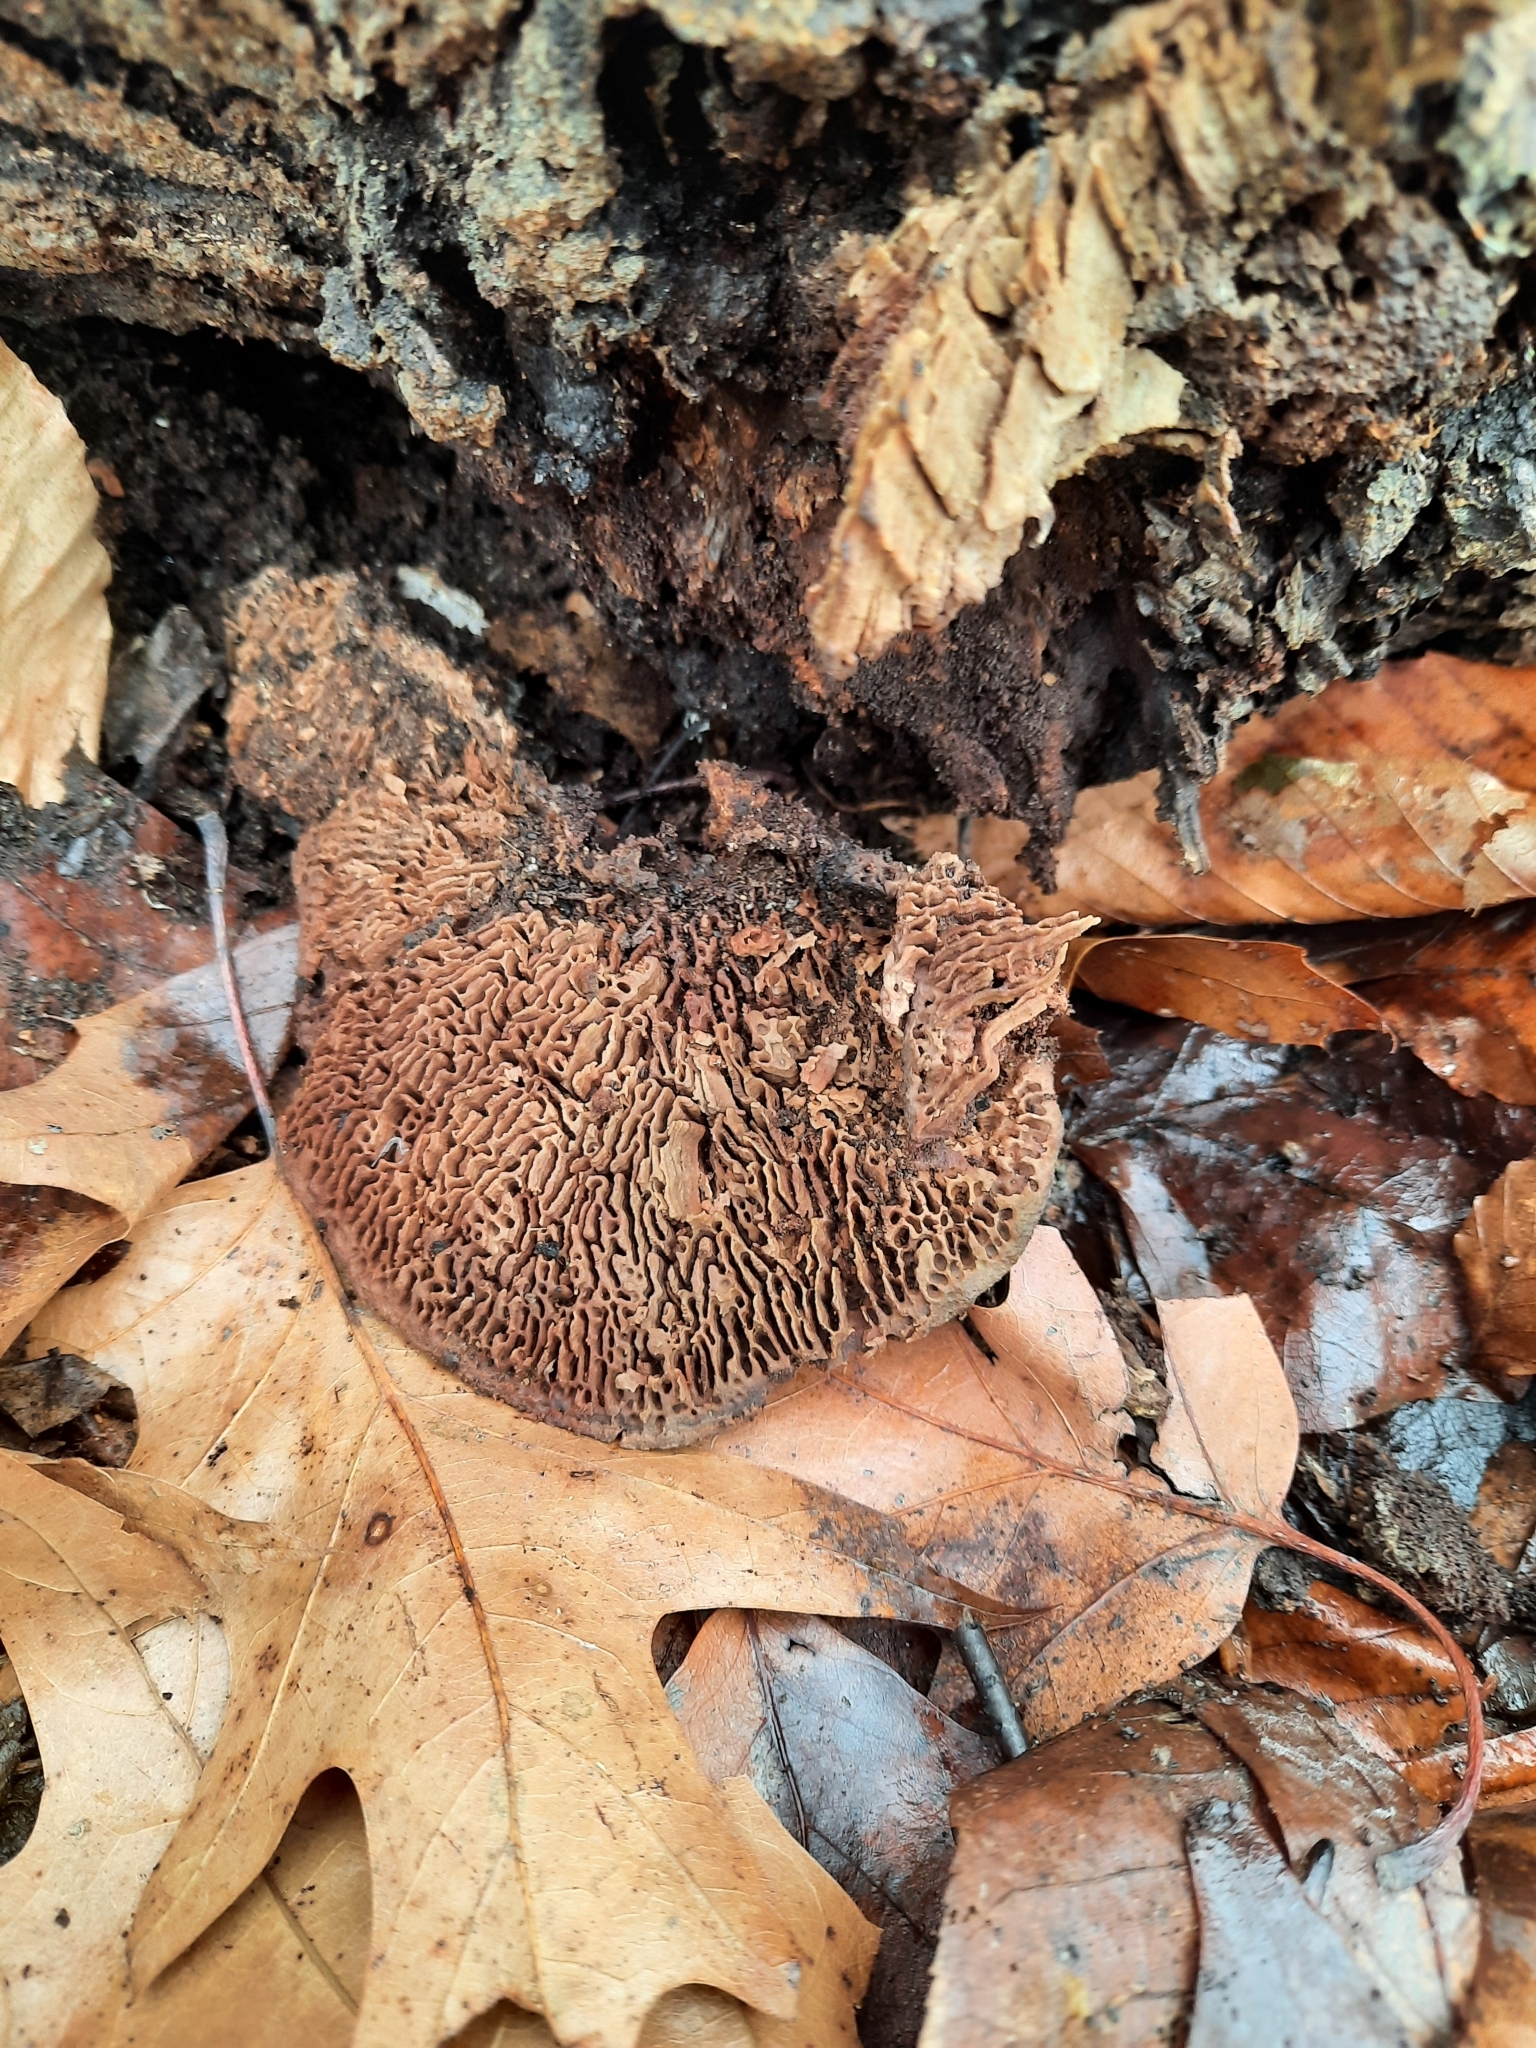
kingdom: Fungi
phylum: Basidiomycota
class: Agaricomycetes
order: Polyporales
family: Fomitopsidaceae
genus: Fomitopsis
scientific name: Fomitopsis
